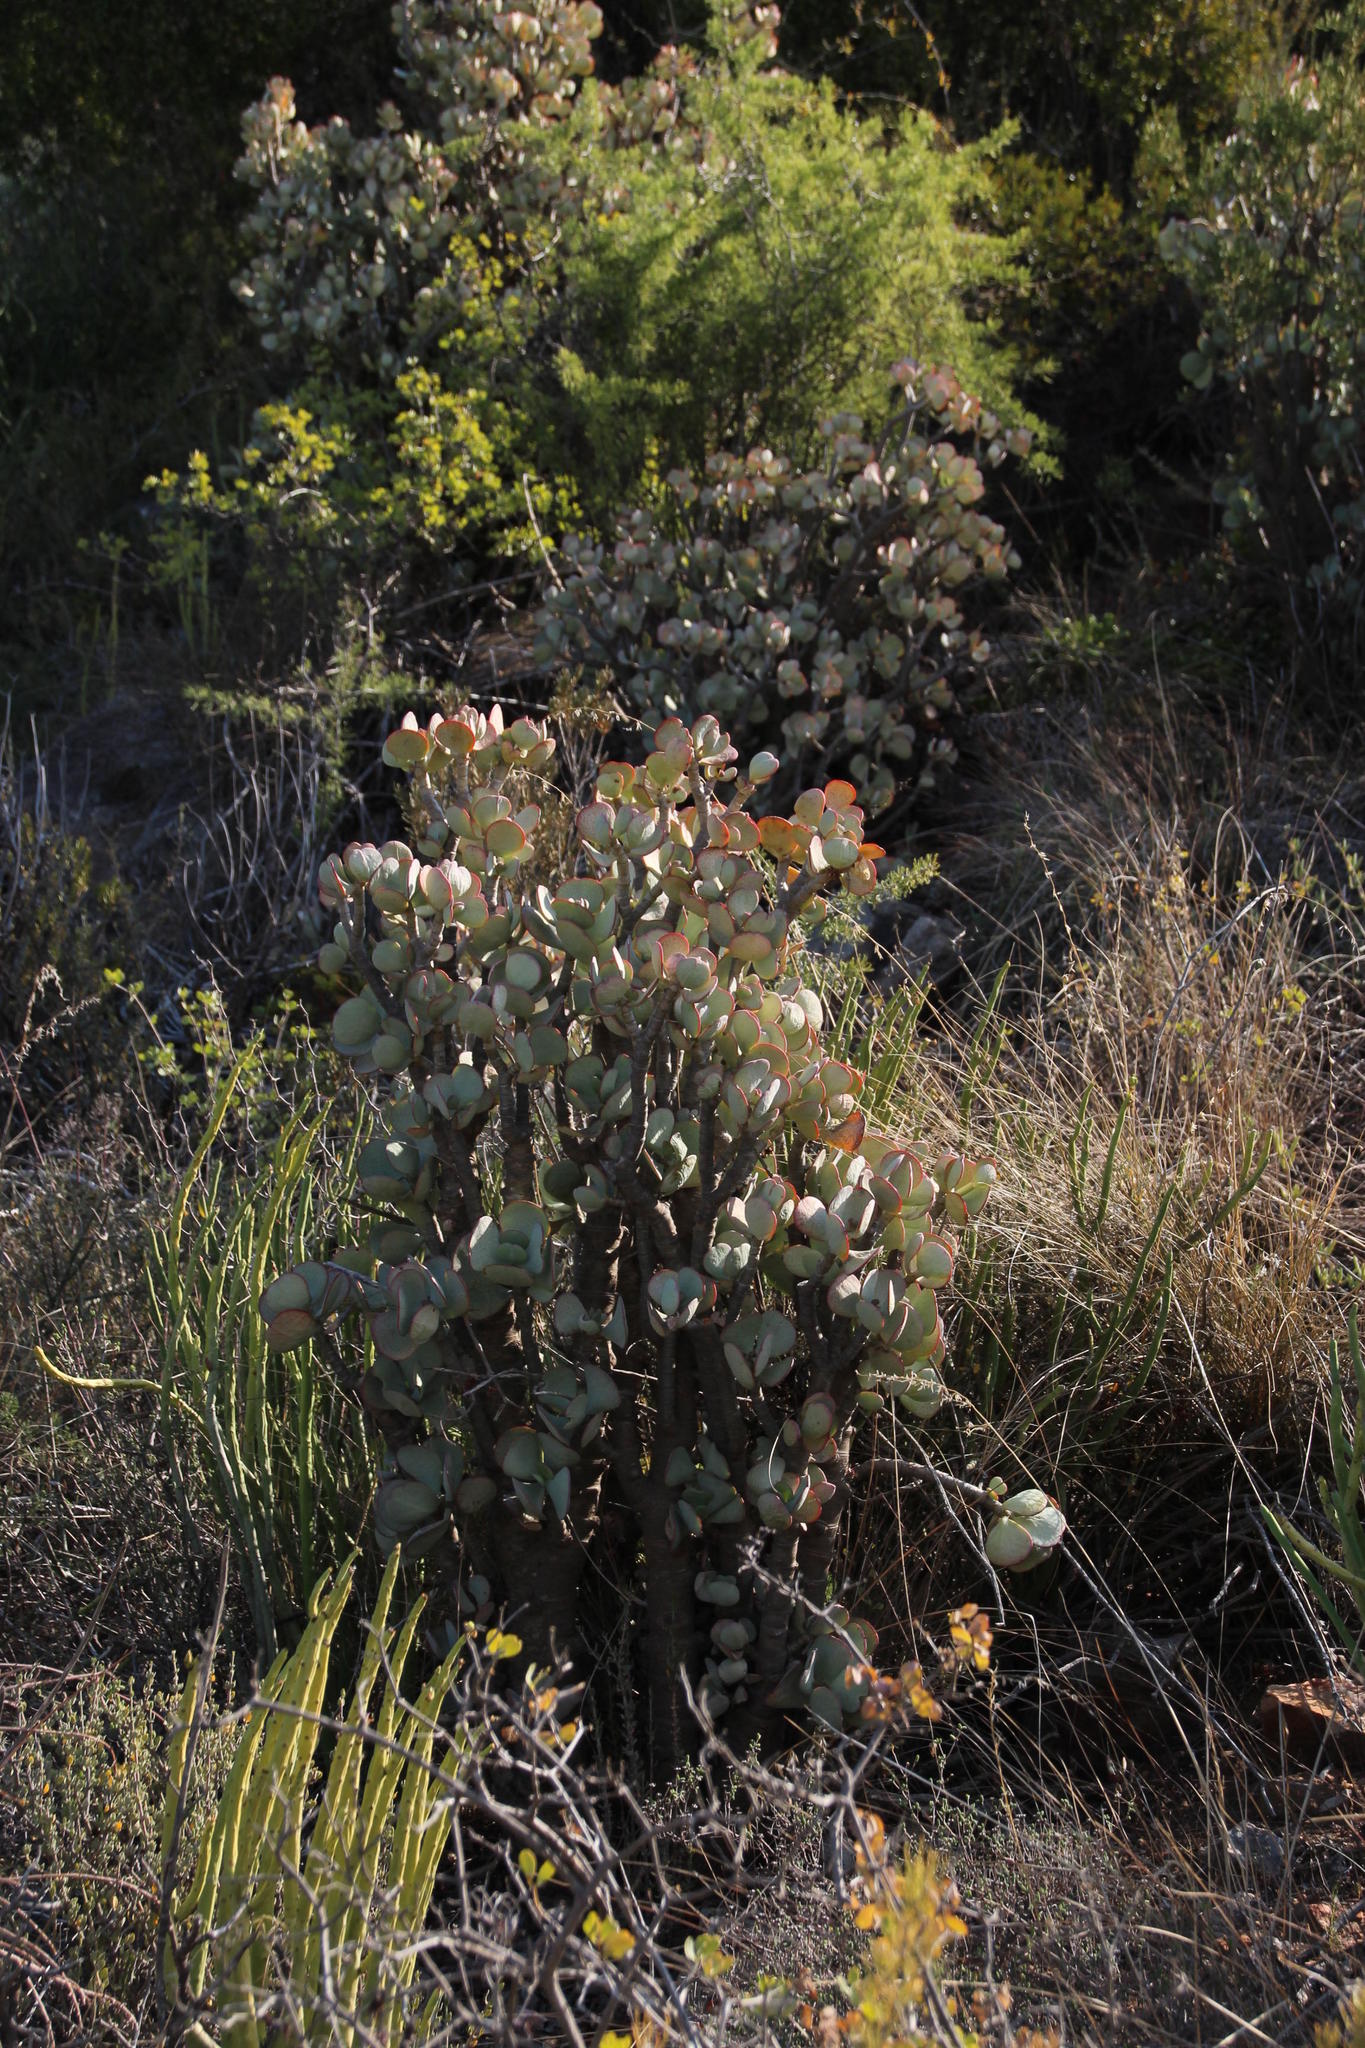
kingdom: Plantae
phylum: Tracheophyta
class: Magnoliopsida
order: Saxifragales
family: Crassulaceae
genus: Crassula
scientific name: Crassula arborescens
